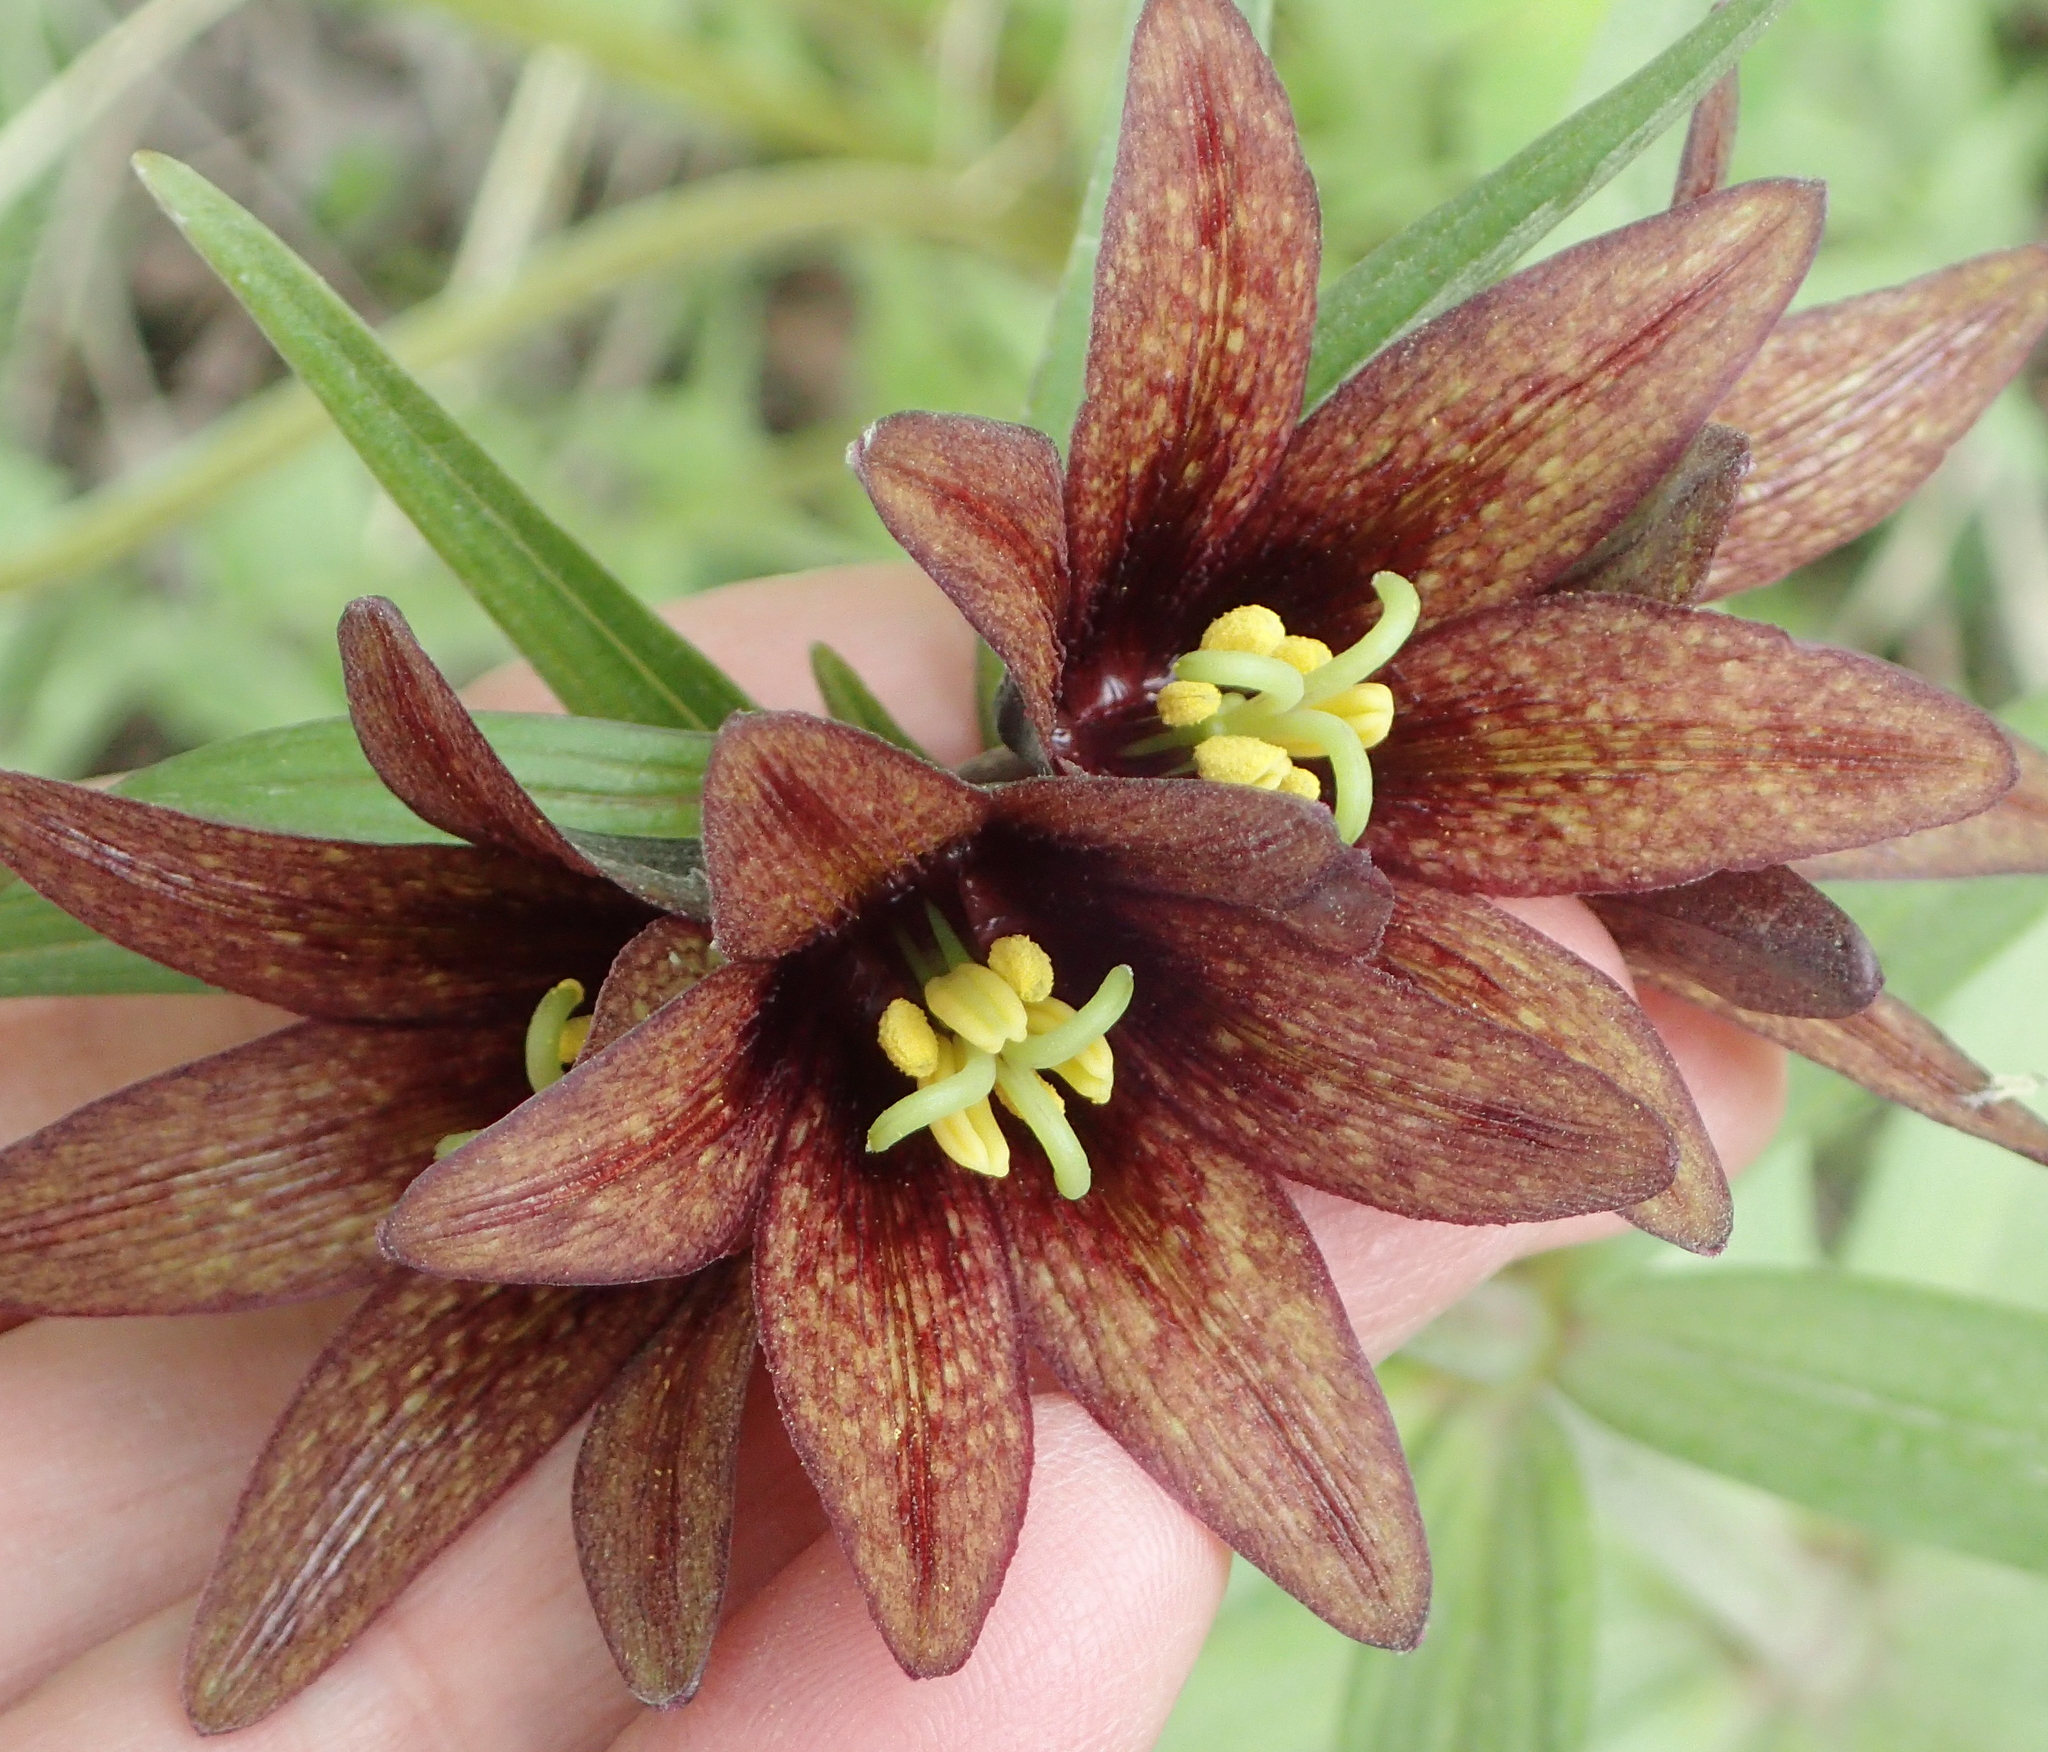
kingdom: Plantae
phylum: Tracheophyta
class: Liliopsida
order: Liliales
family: Liliaceae
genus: Fritillaria
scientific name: Fritillaria camschatcensis
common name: Kamchatka fritillary
